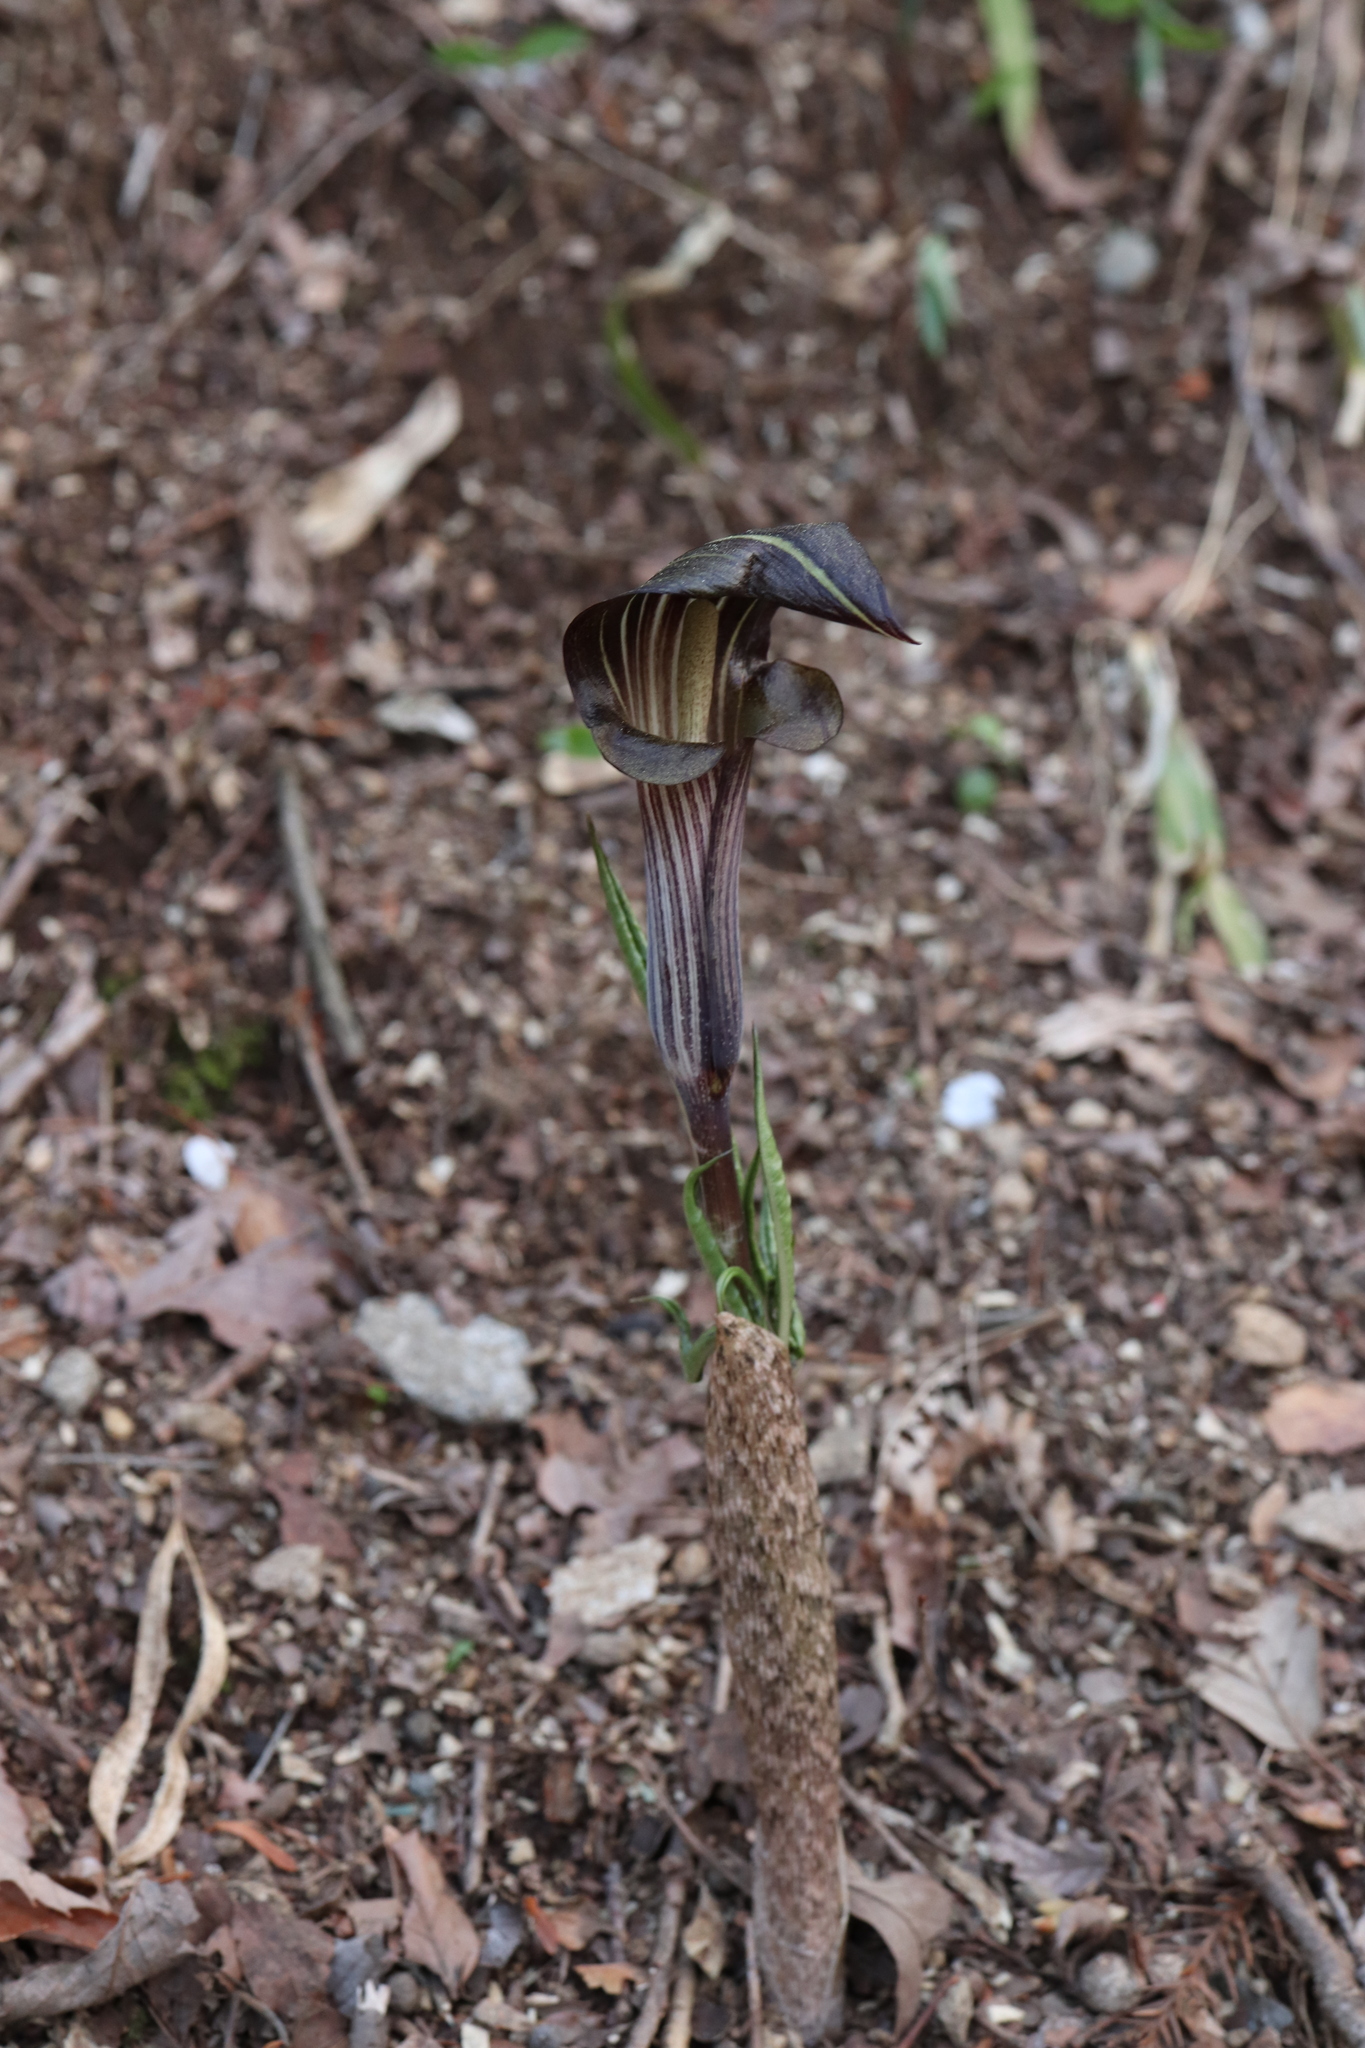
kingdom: Plantae
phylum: Tracheophyta
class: Liliopsida
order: Alismatales
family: Araceae
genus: Arisaema
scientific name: Arisaema limbatum
